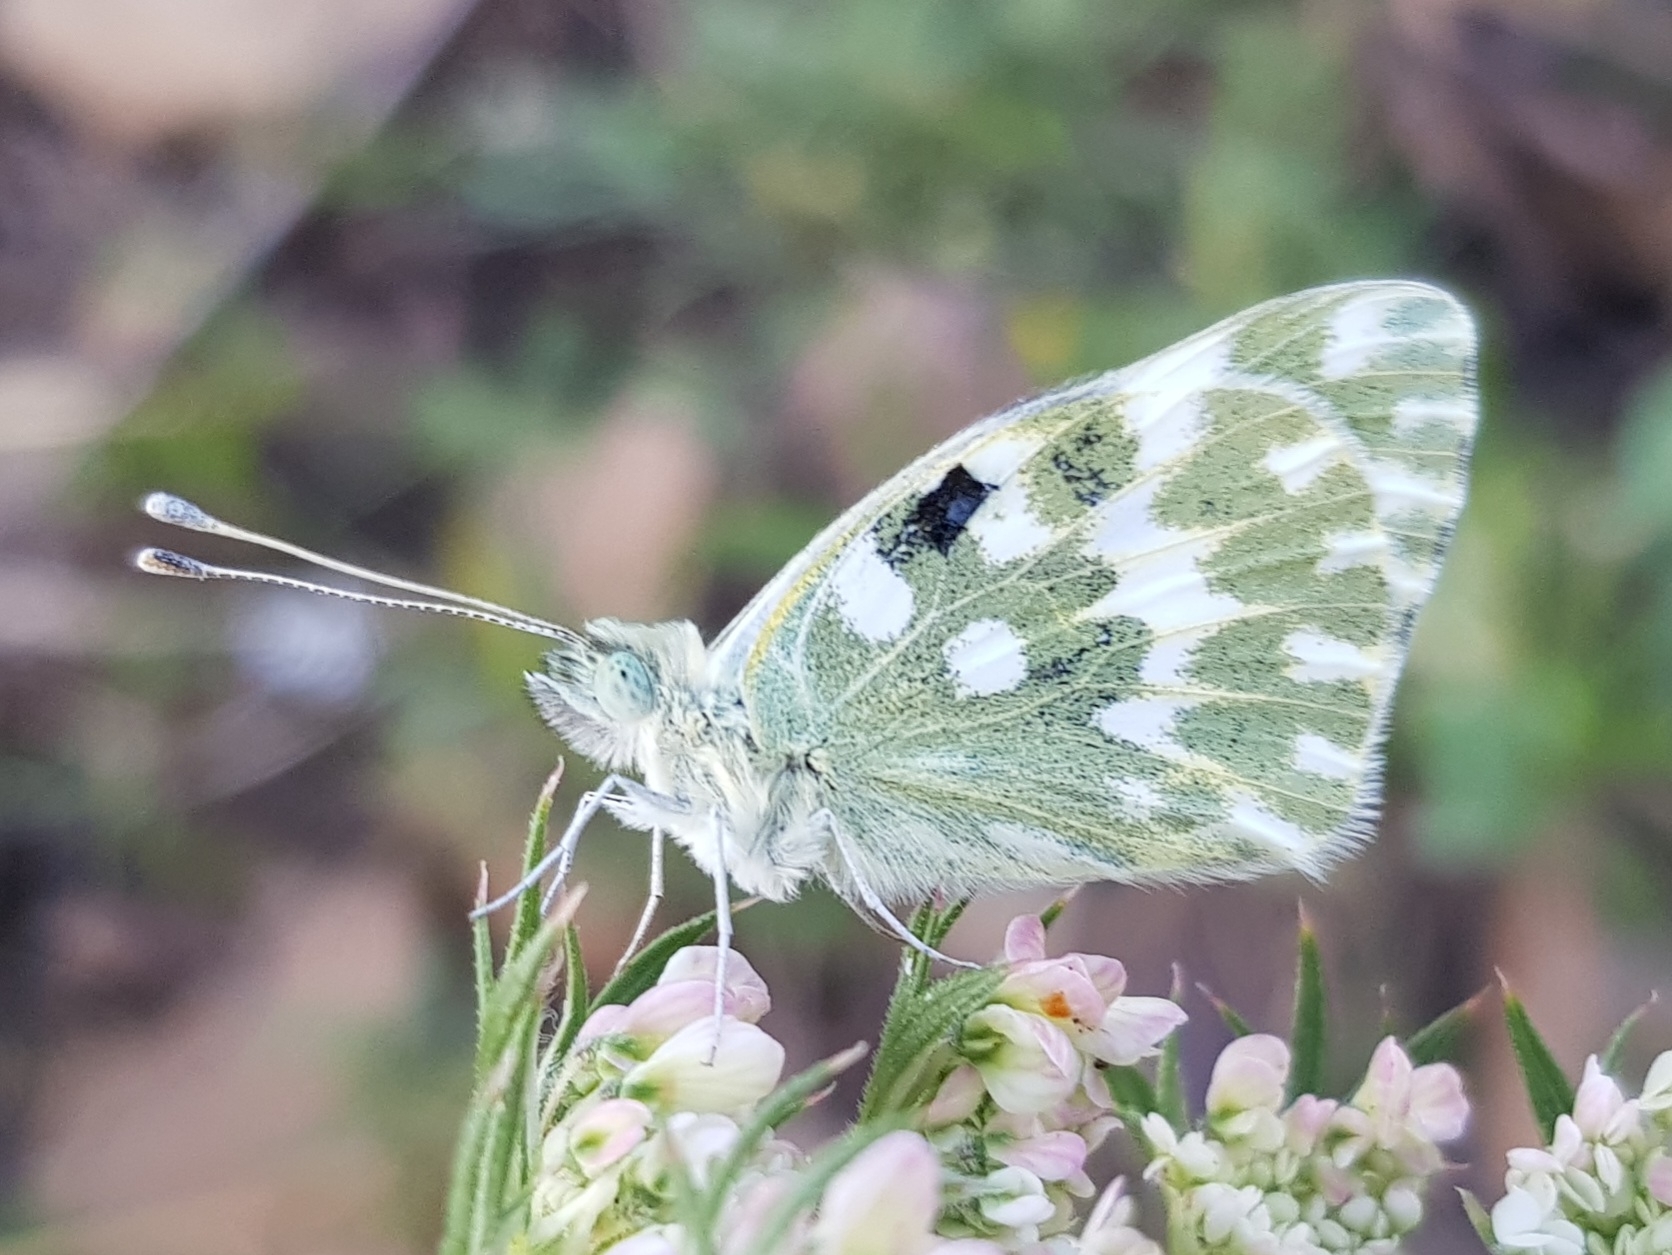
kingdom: Animalia
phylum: Arthropoda
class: Insecta
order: Lepidoptera
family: Pieridae
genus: Pontia
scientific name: Pontia daplidice
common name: Bath white
